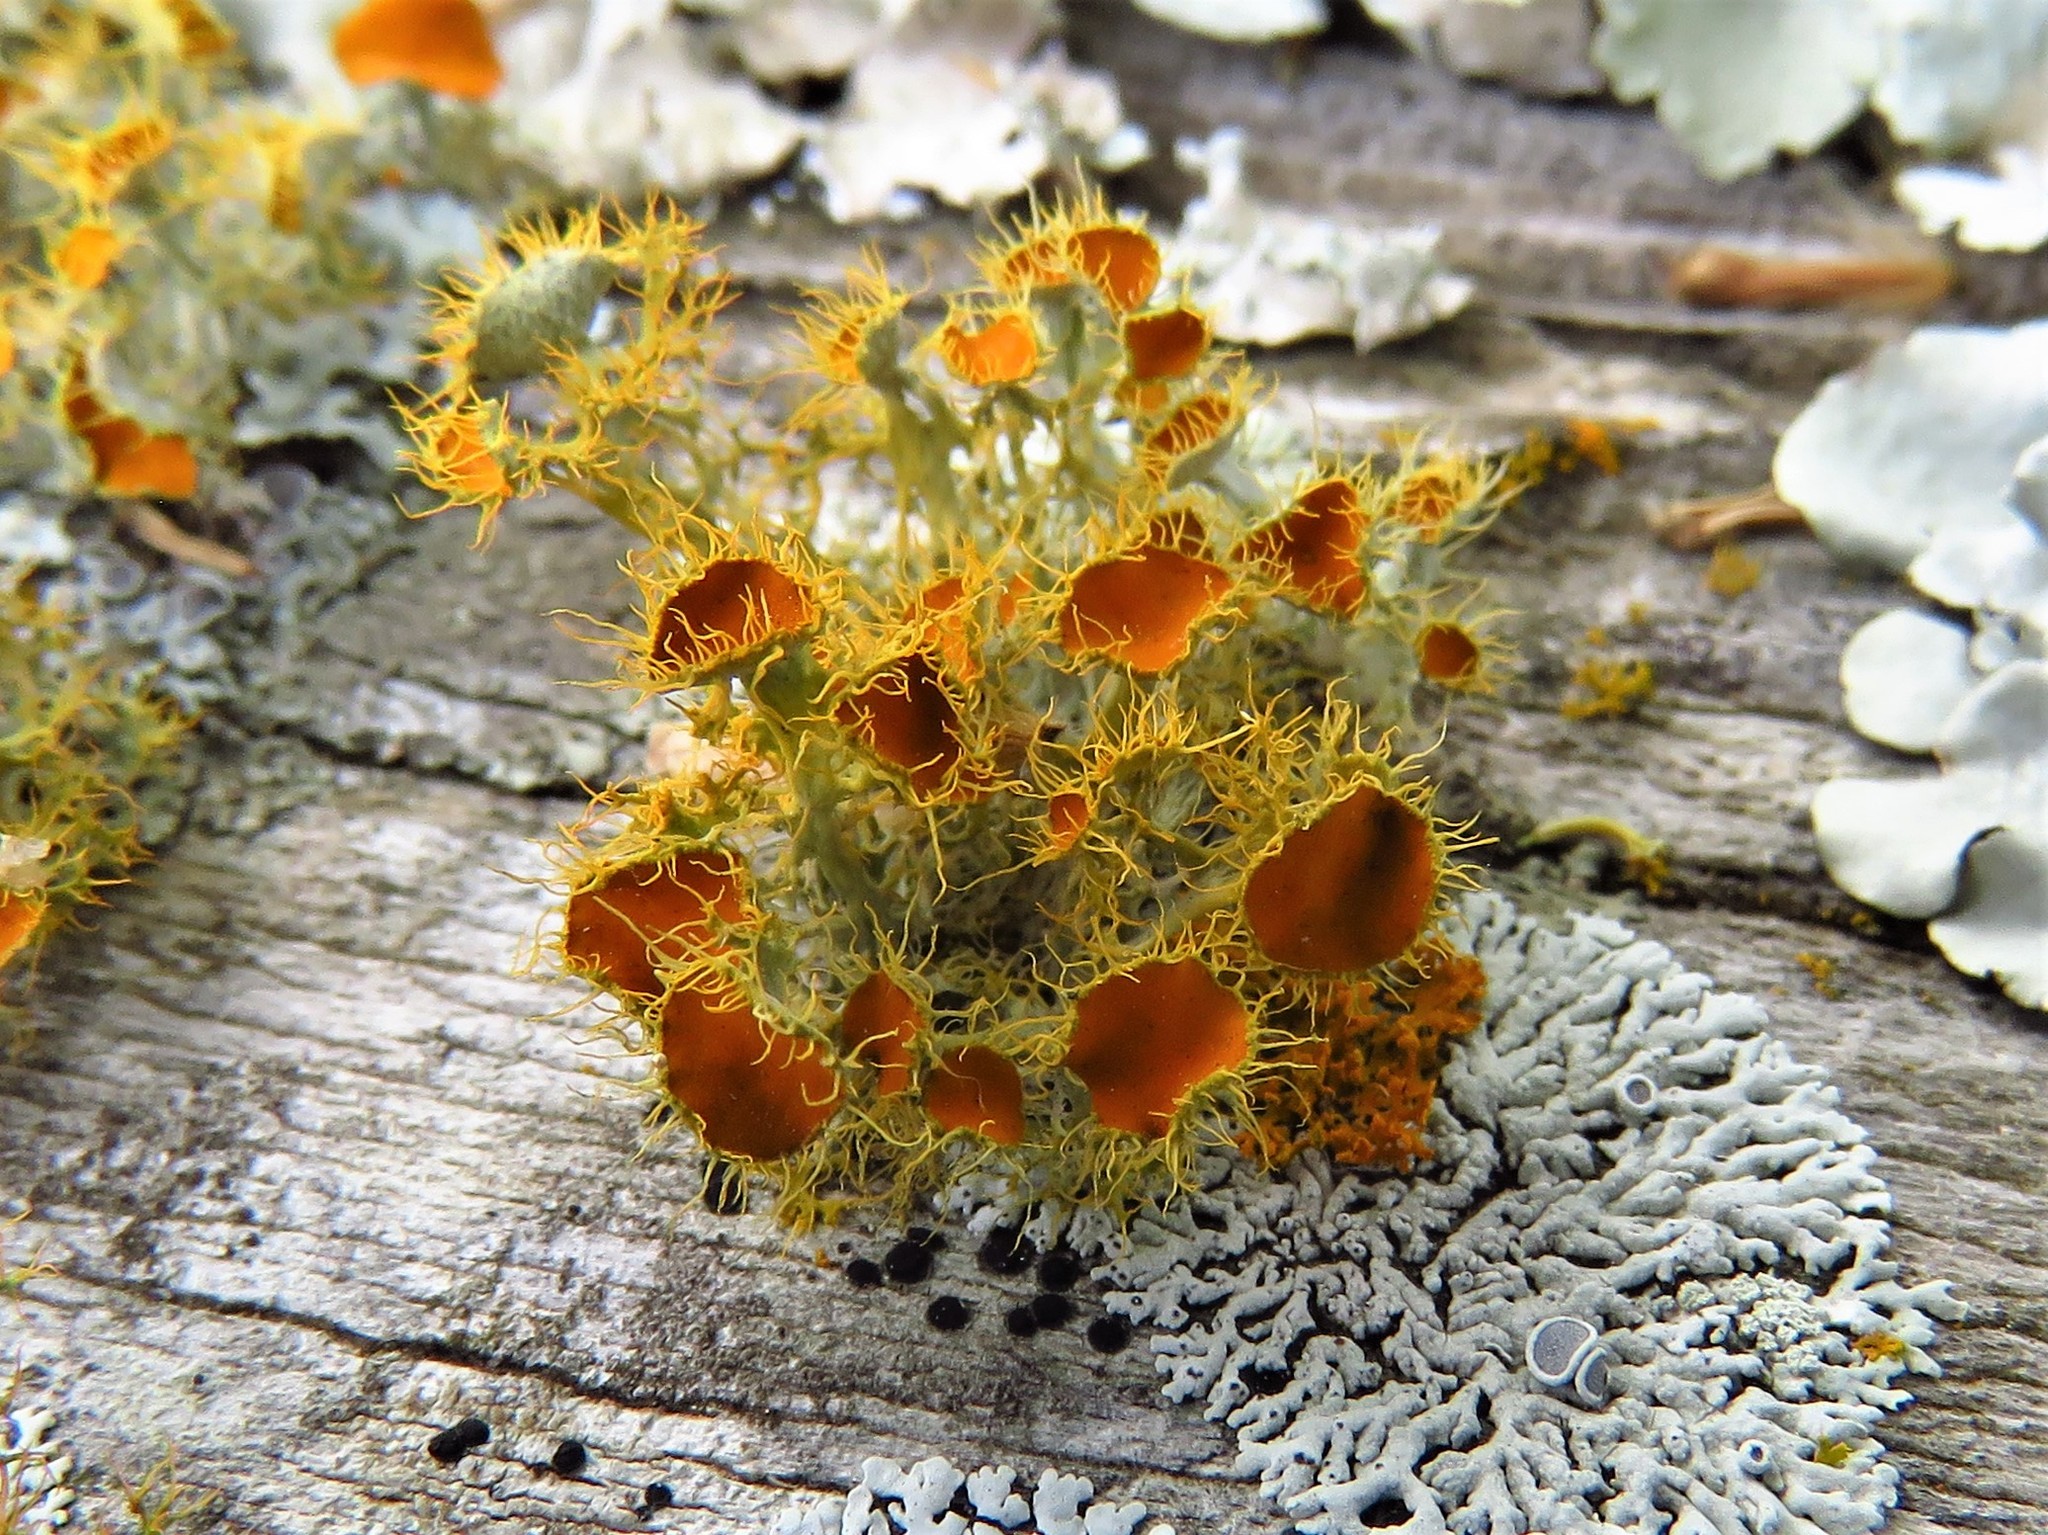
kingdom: Fungi
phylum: Ascomycota
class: Lecanoromycetes
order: Teloschistales
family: Teloschistaceae
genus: Niorma
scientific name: Niorma chrysophthalma
